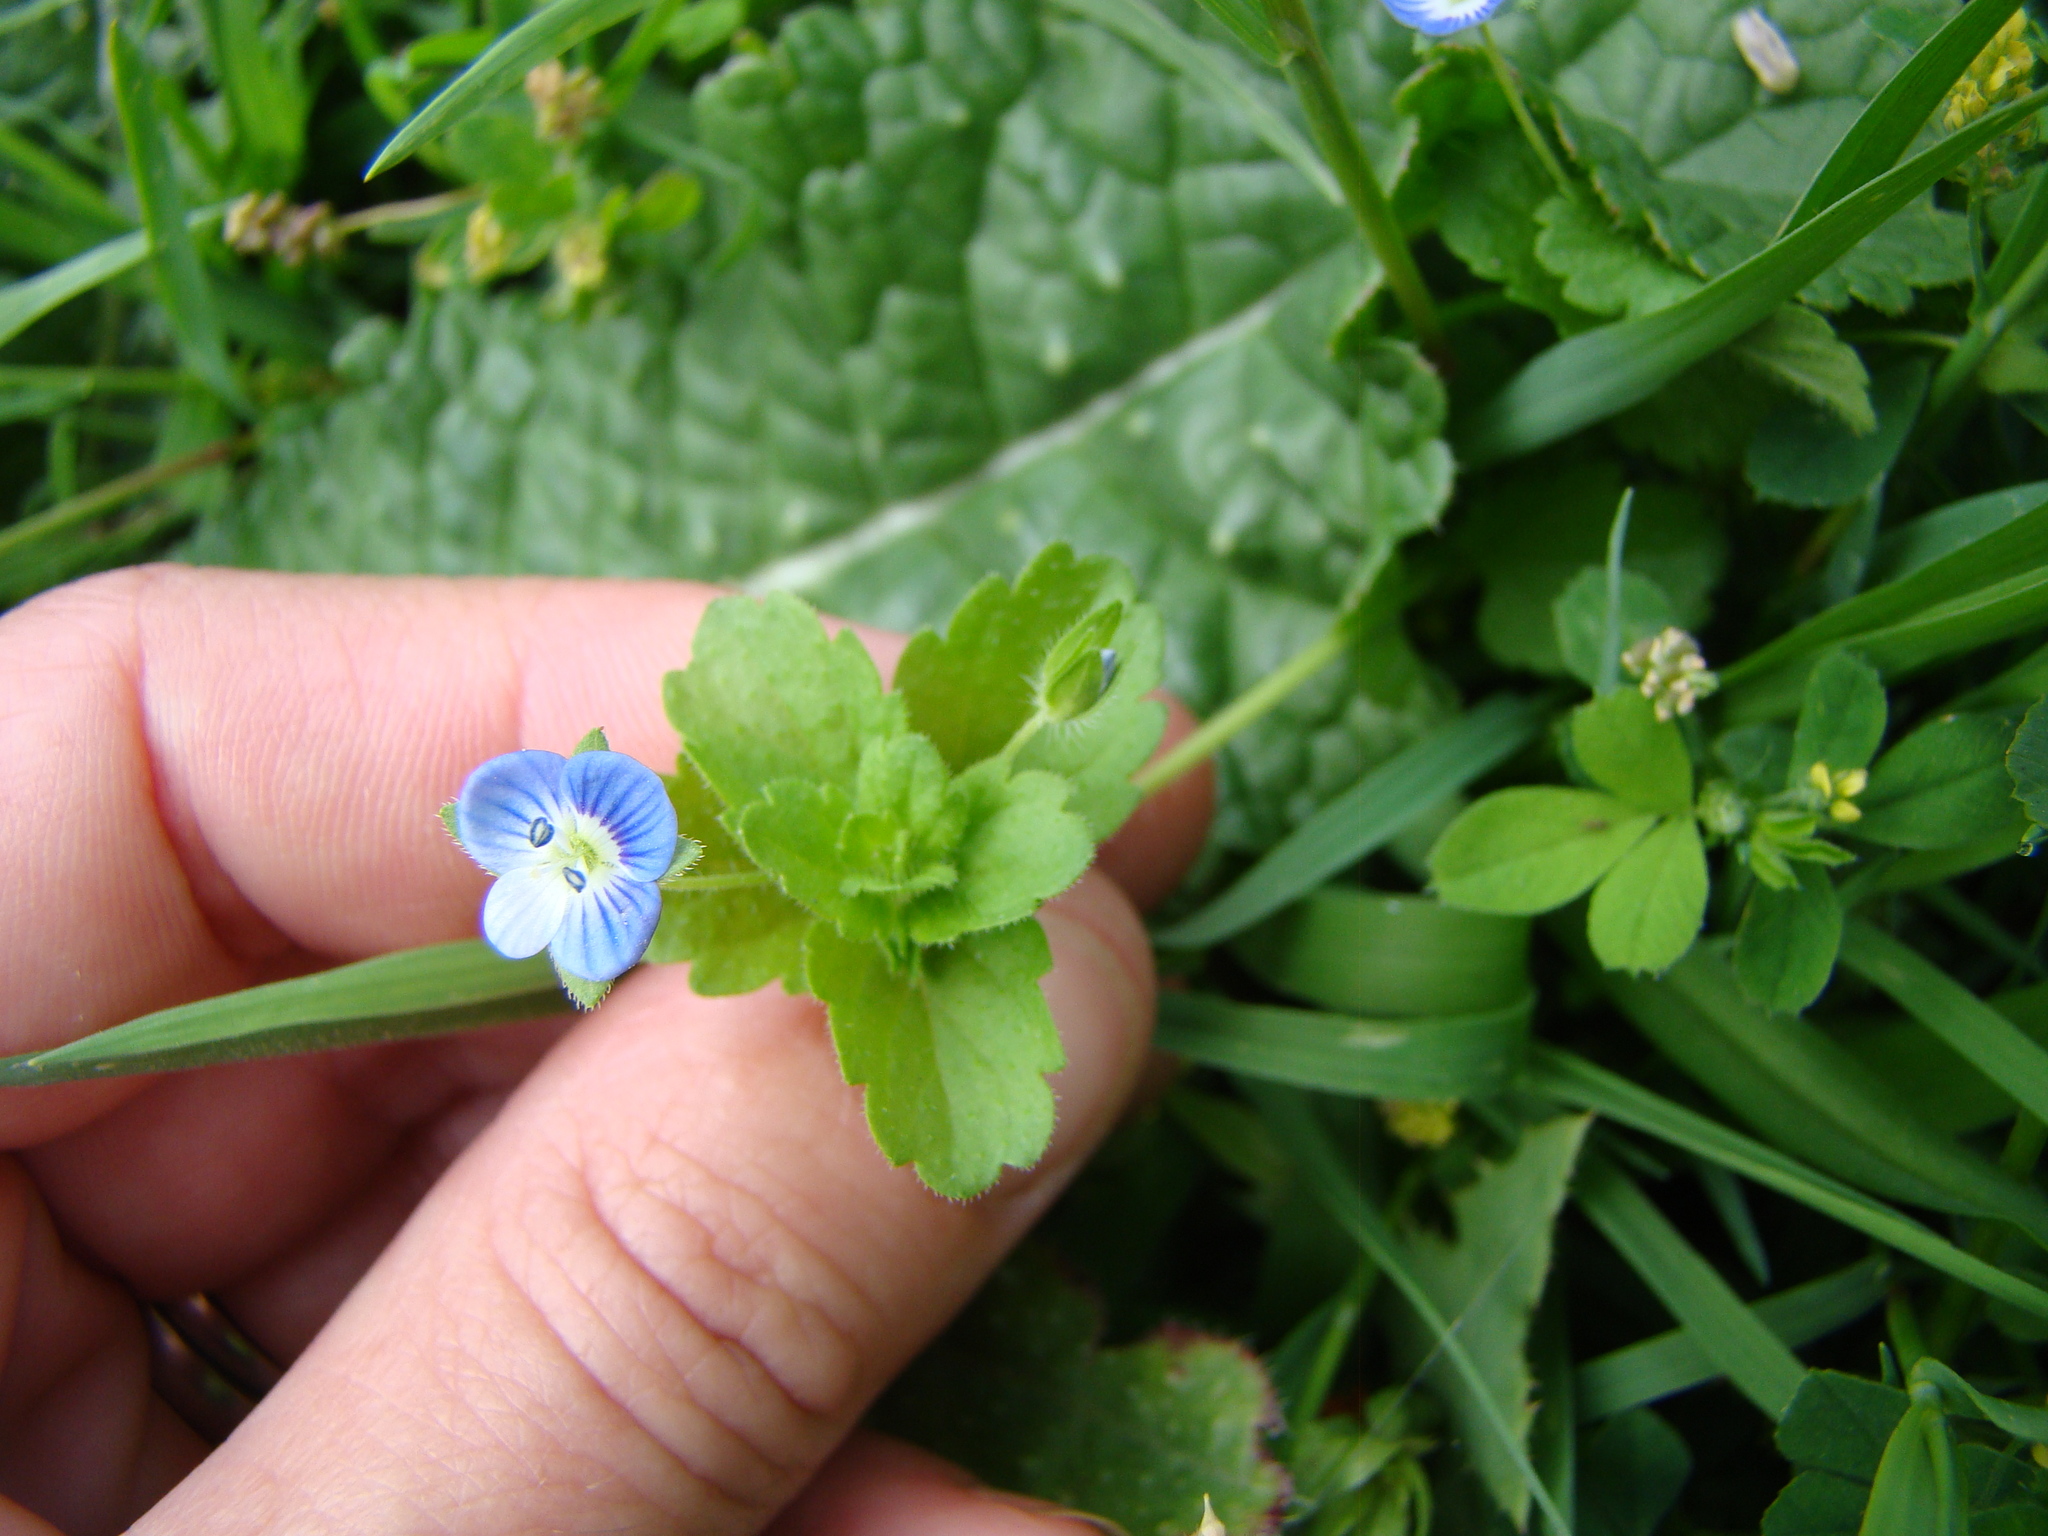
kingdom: Plantae
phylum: Tracheophyta
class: Magnoliopsida
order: Lamiales
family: Plantaginaceae
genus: Veronica
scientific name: Veronica persica
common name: Common field-speedwell
